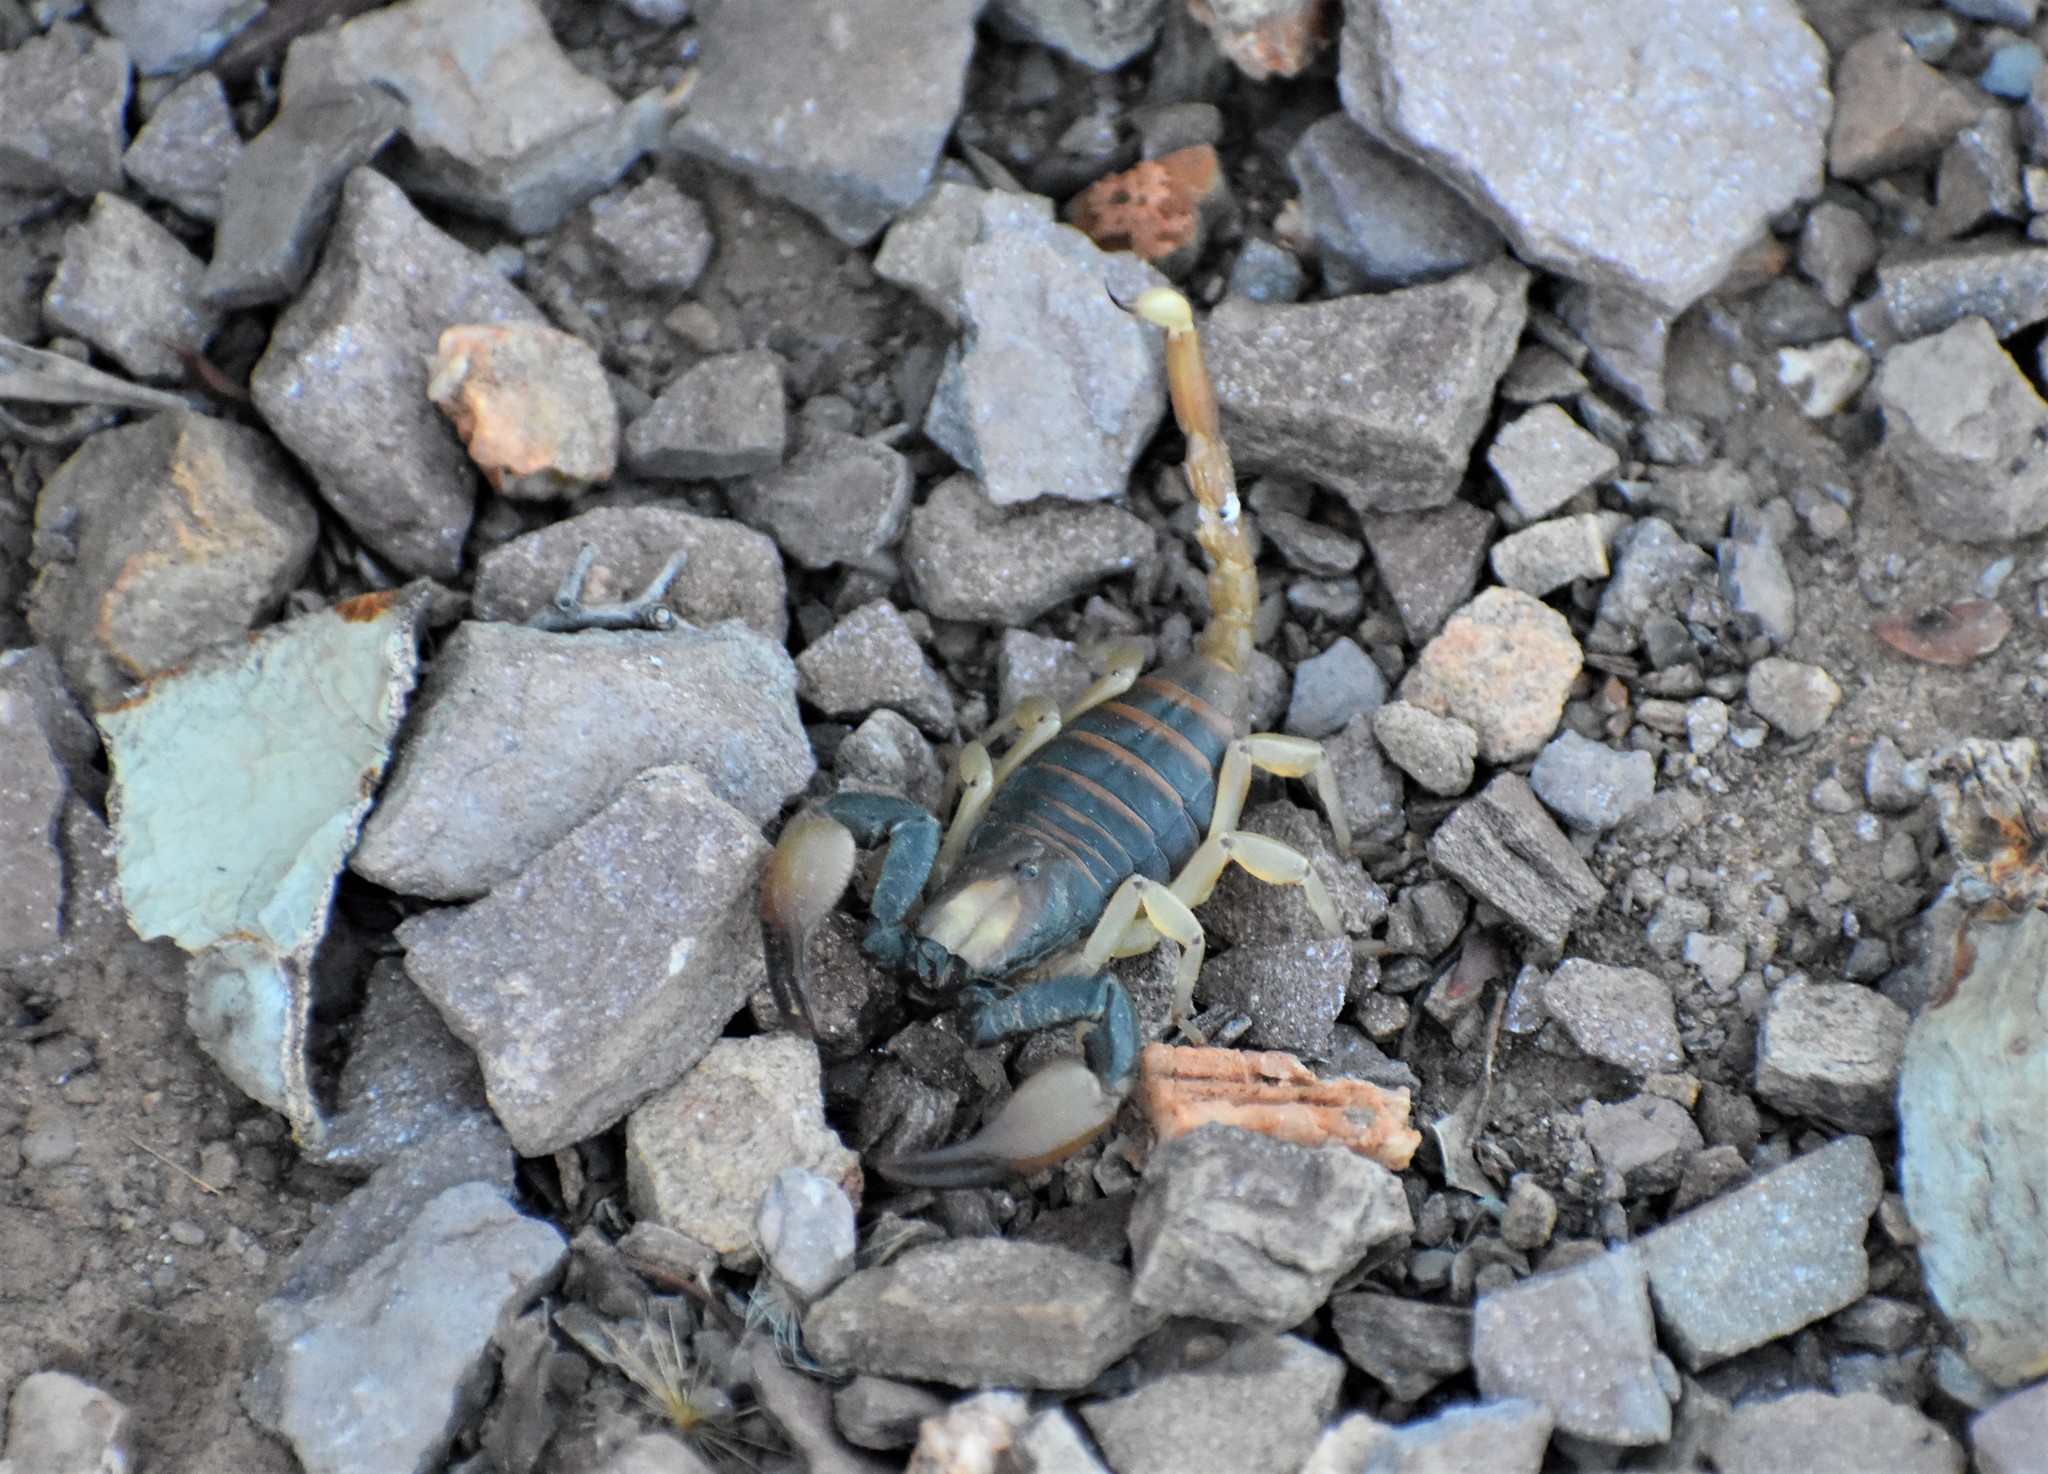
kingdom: Animalia
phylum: Arthropoda
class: Arachnida
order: Scorpiones
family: Scorpionidae
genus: Opistophthalmus
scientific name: Opistophthalmus karrooensis
